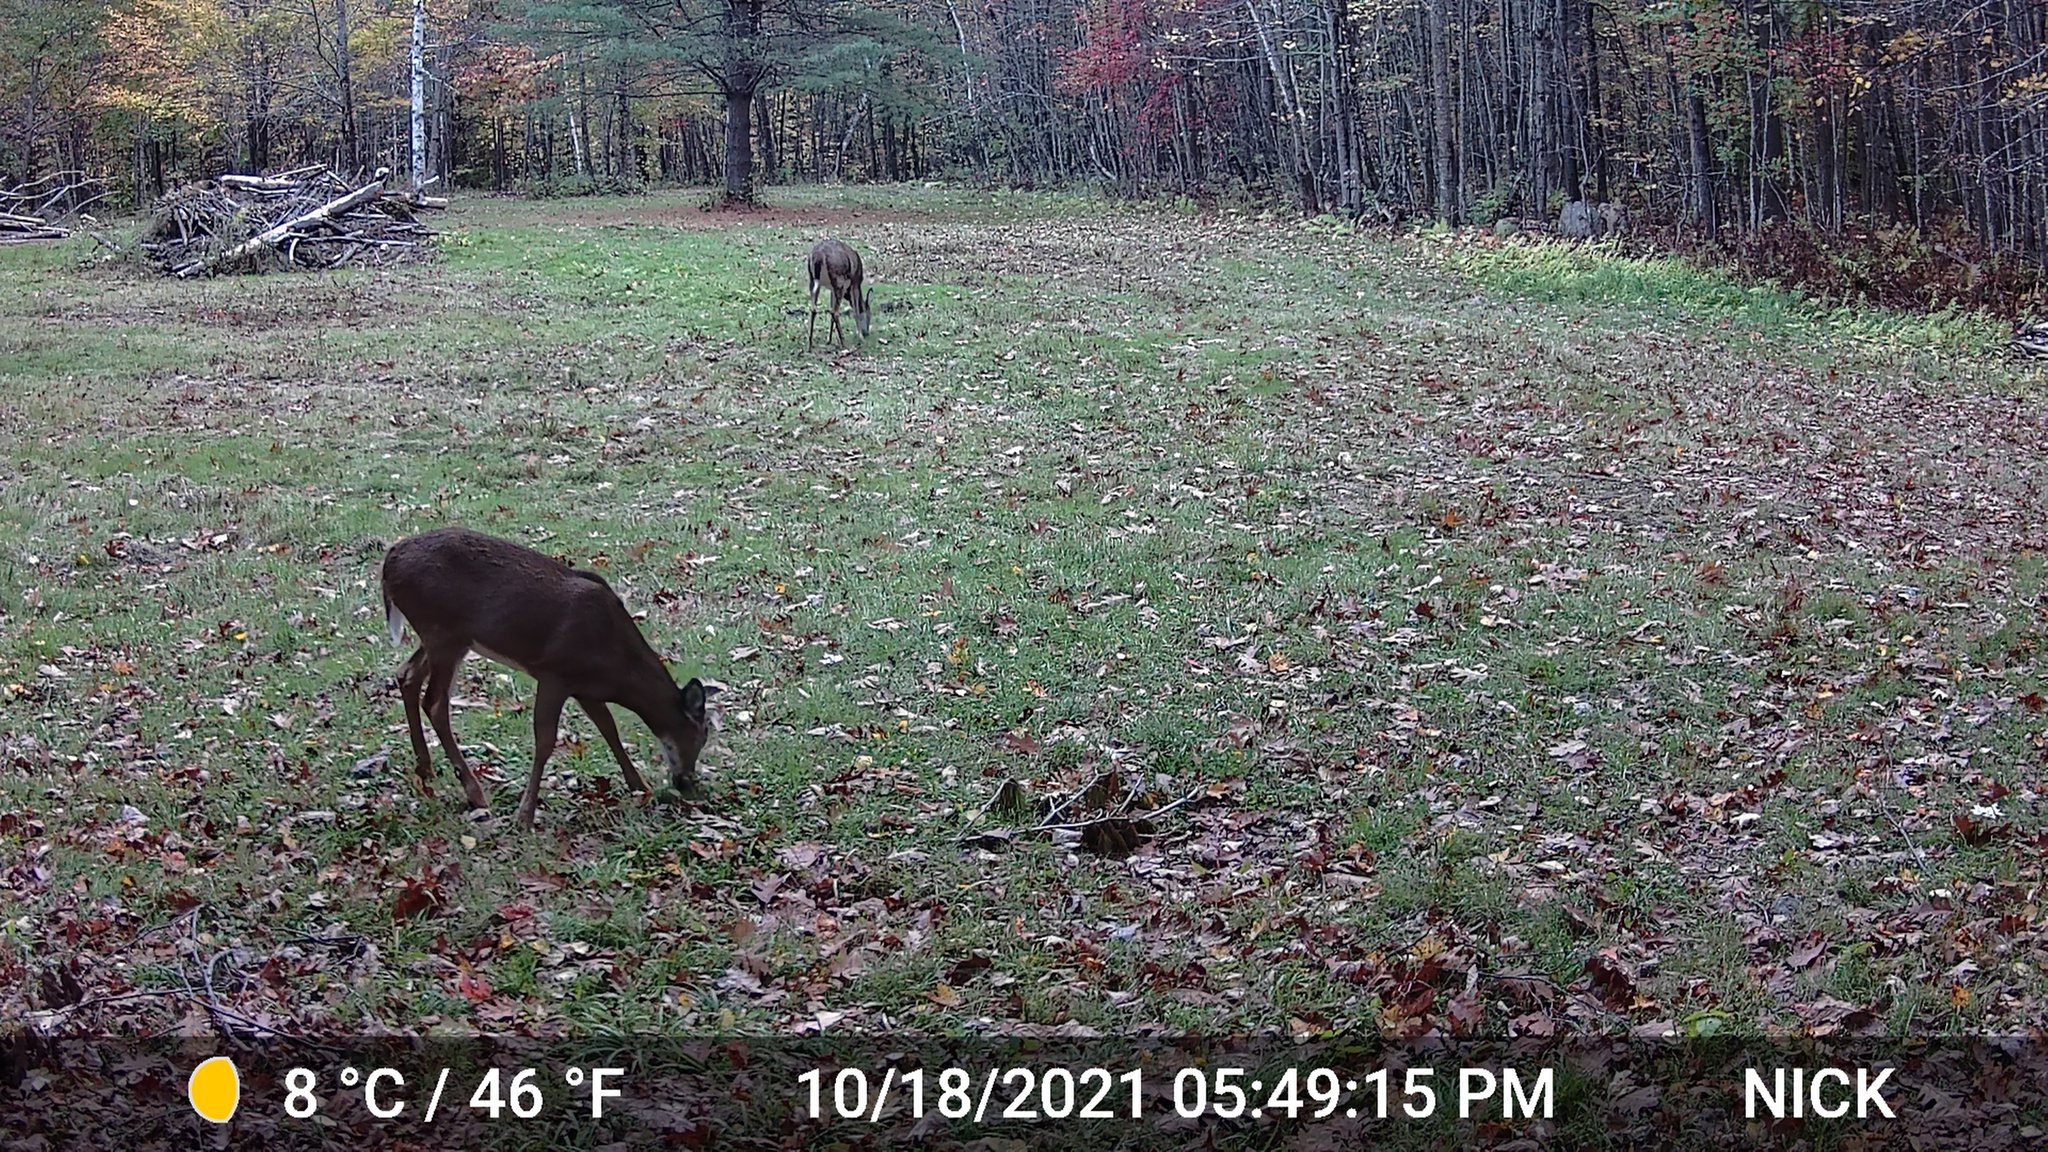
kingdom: Animalia
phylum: Chordata
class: Mammalia
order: Artiodactyla
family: Cervidae
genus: Odocoileus
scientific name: Odocoileus virginianus
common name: White-tailed deer
